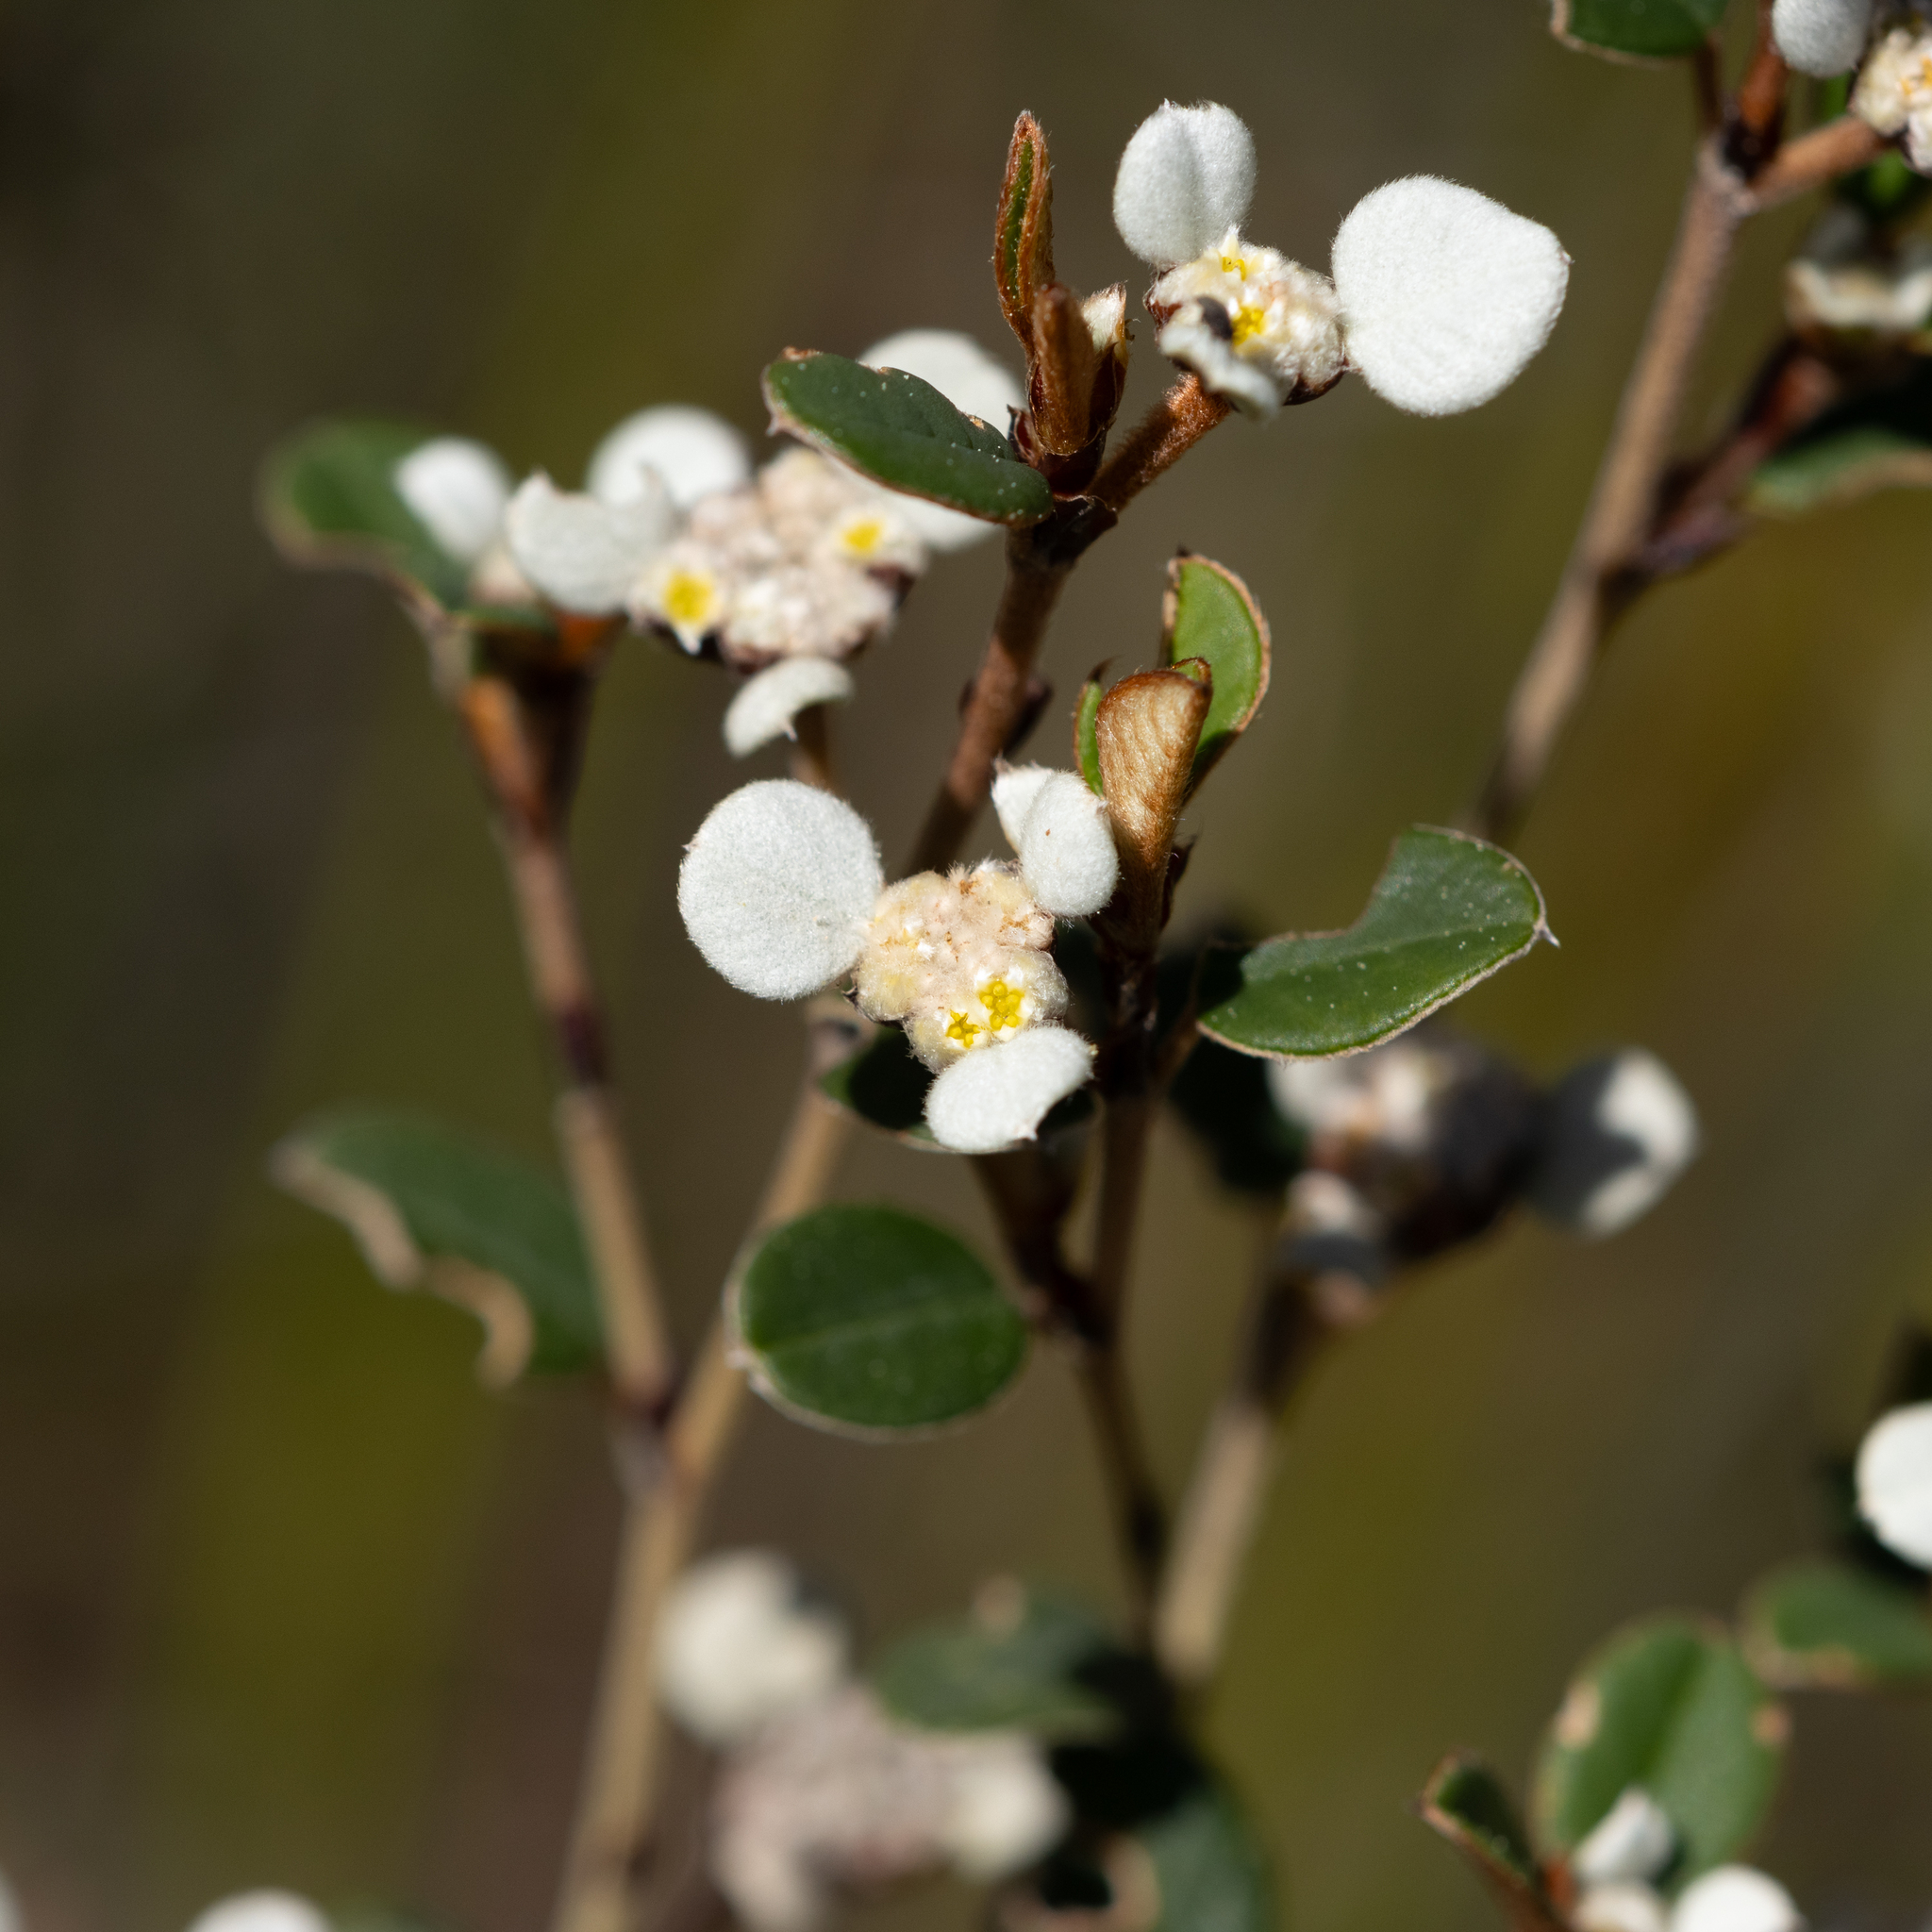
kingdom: Plantae
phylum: Tracheophyta
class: Magnoliopsida
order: Rosales
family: Rhamnaceae
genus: Spyridium
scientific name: Spyridium thymifolium
